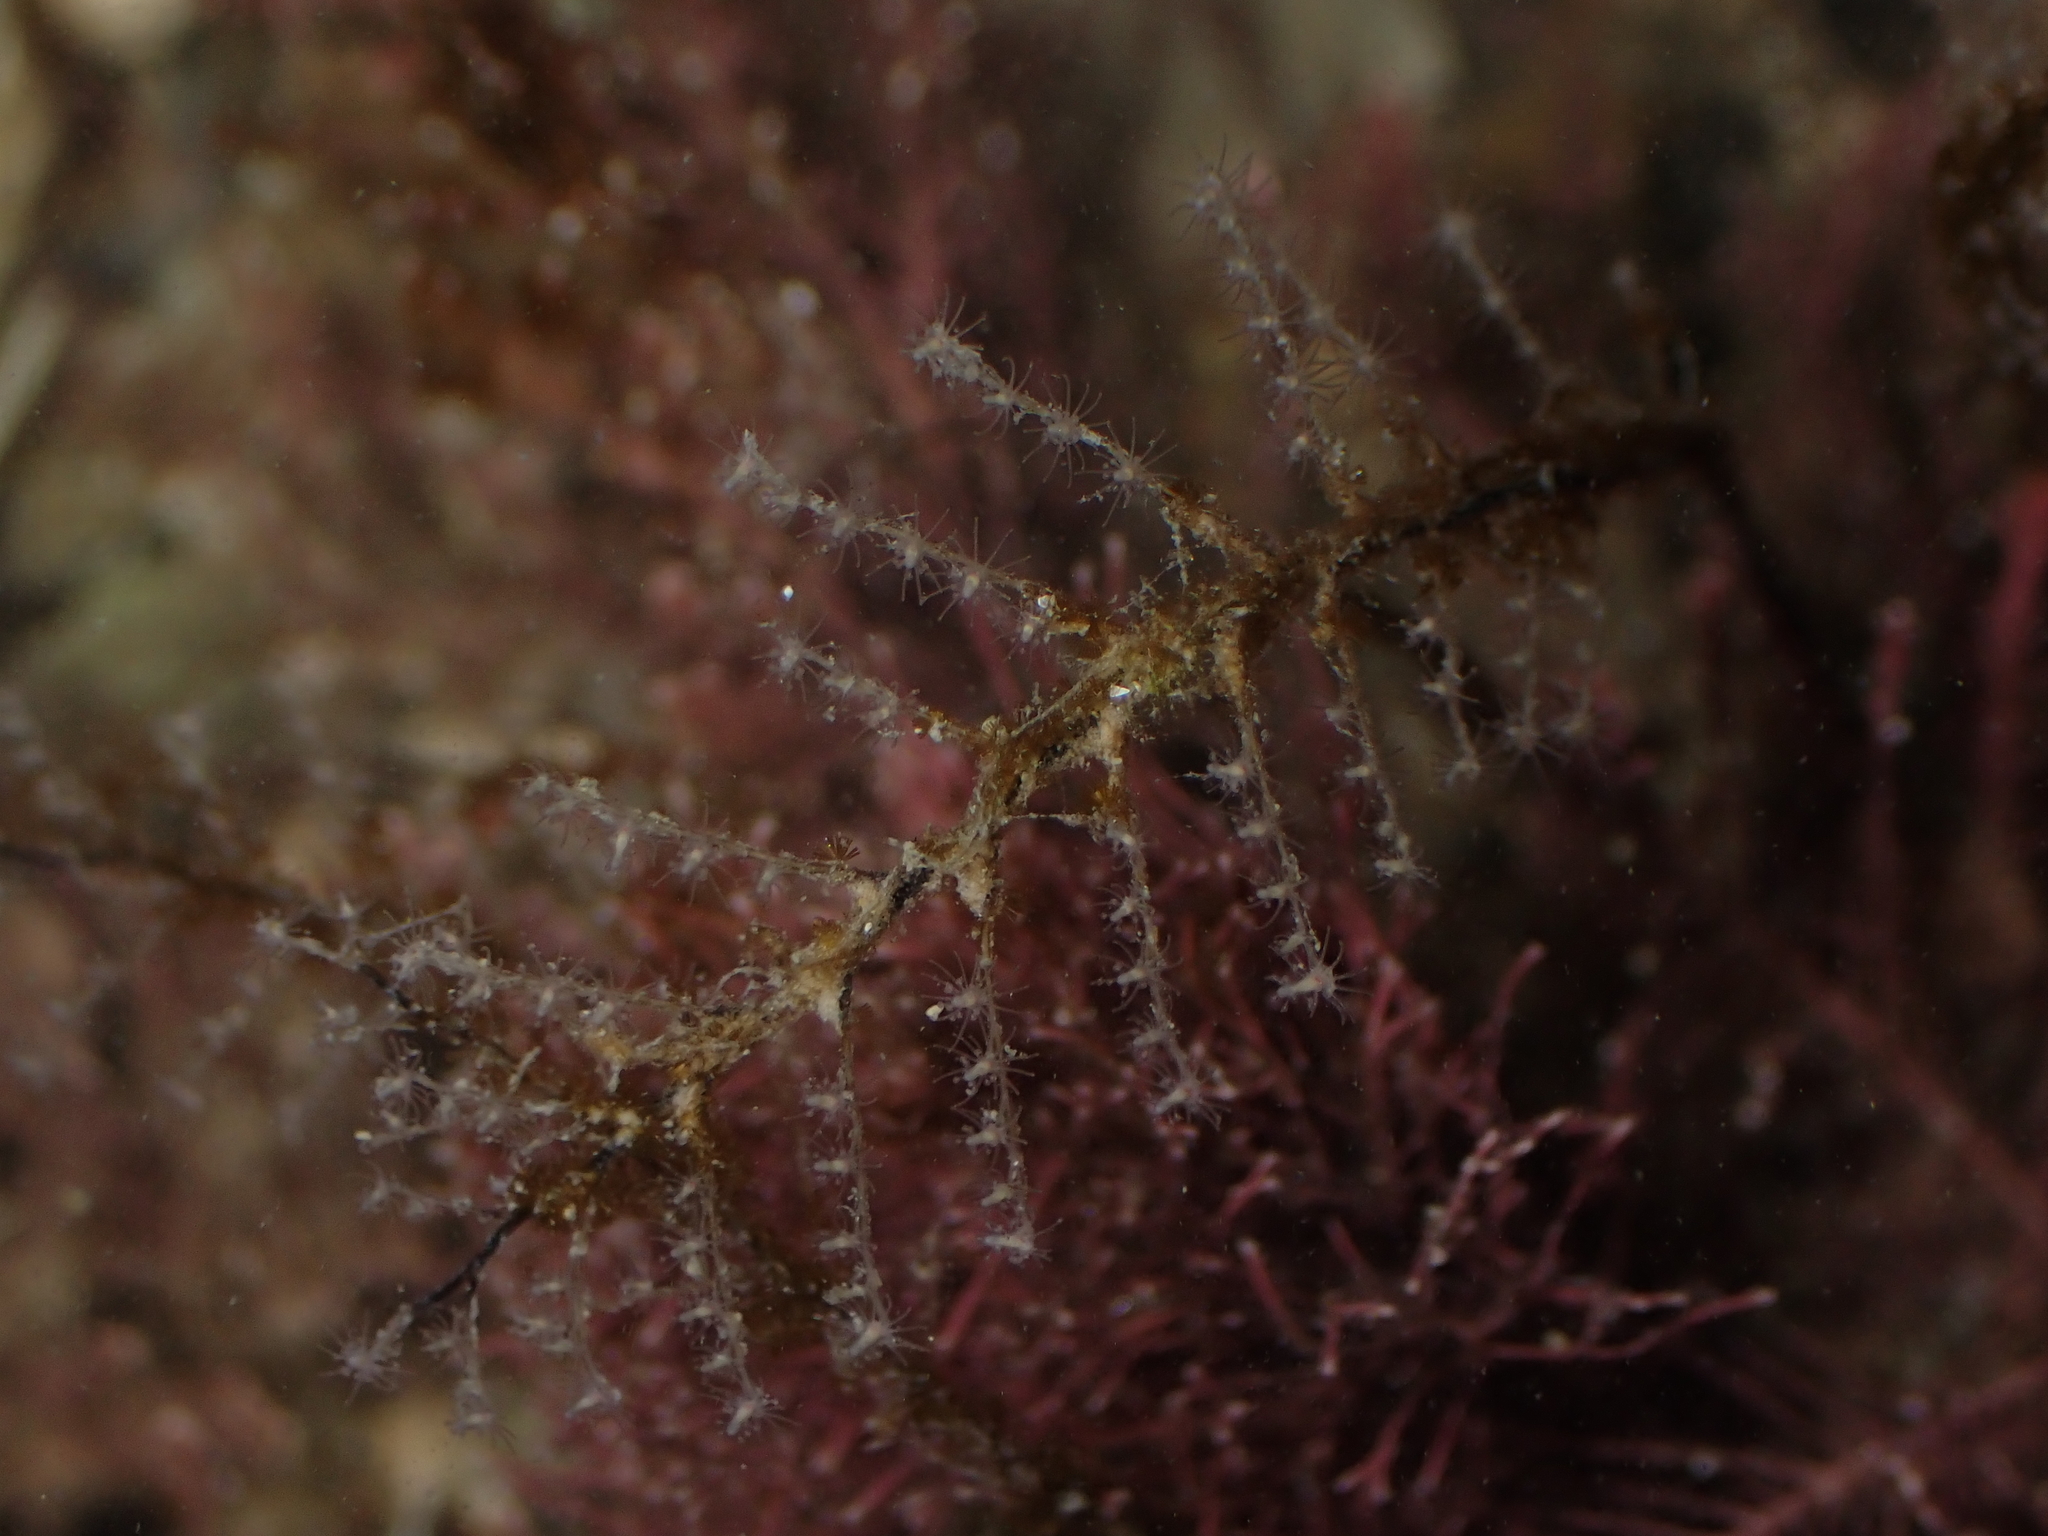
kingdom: Animalia
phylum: Cnidaria
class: Hydrozoa
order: Anthoathecata
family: Pennariidae
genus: Pennaria
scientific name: Pennaria disticha
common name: Feather hydroid
